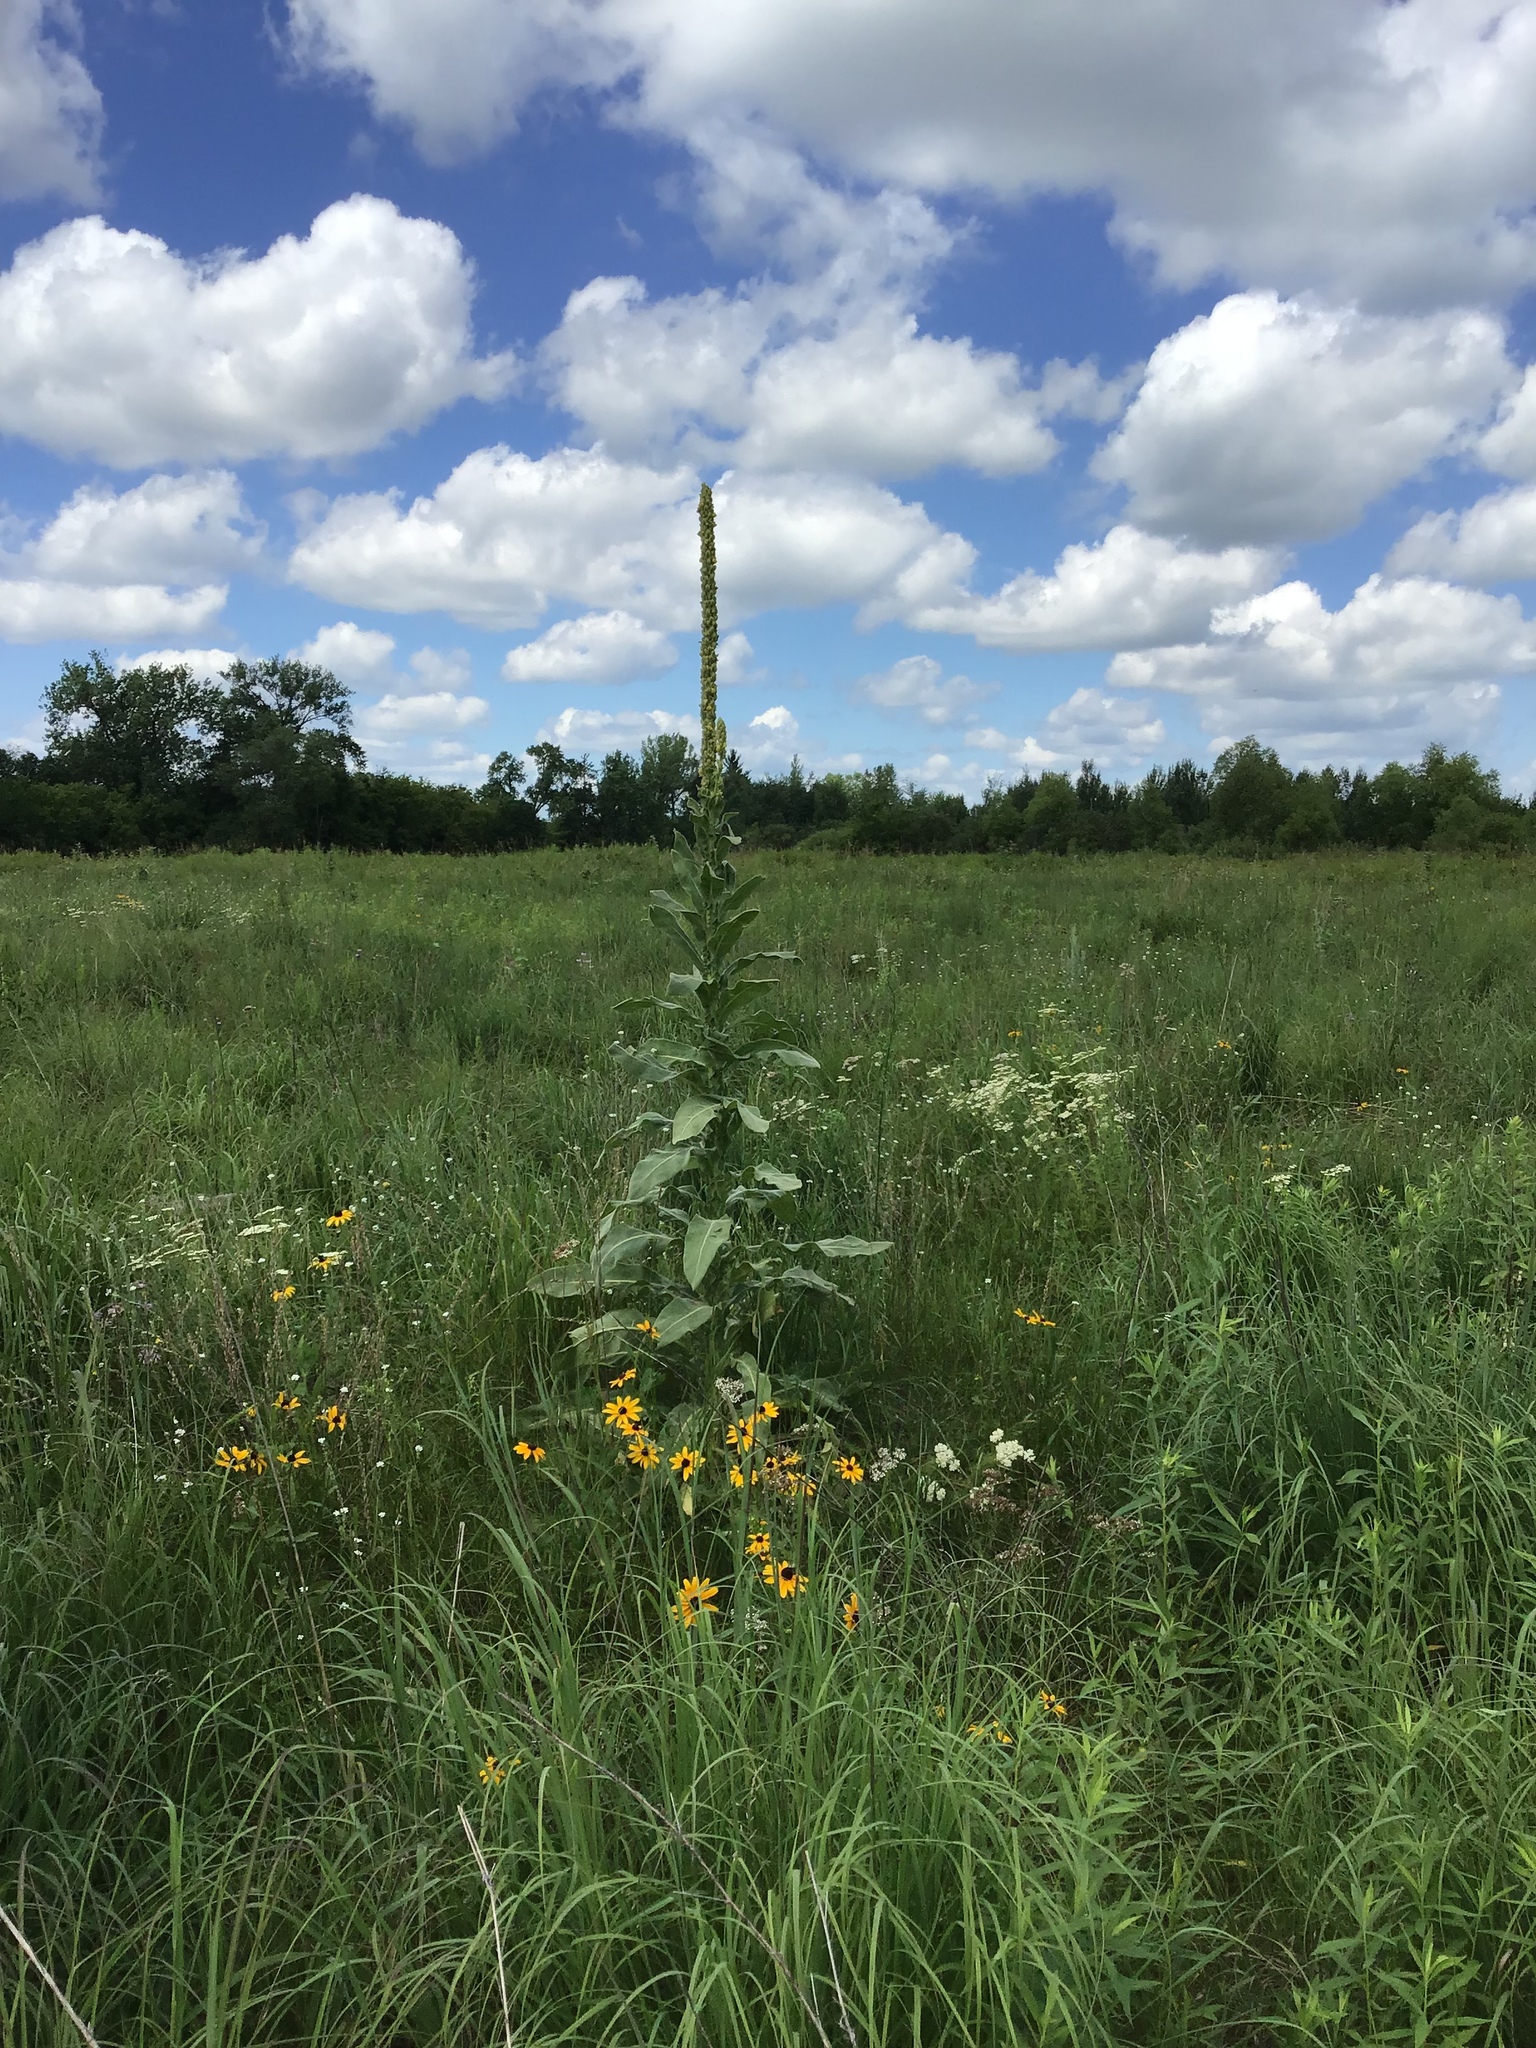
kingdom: Plantae
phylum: Tracheophyta
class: Magnoliopsida
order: Lamiales
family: Scrophulariaceae
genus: Verbascum
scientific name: Verbascum thapsus
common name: Common mullein
